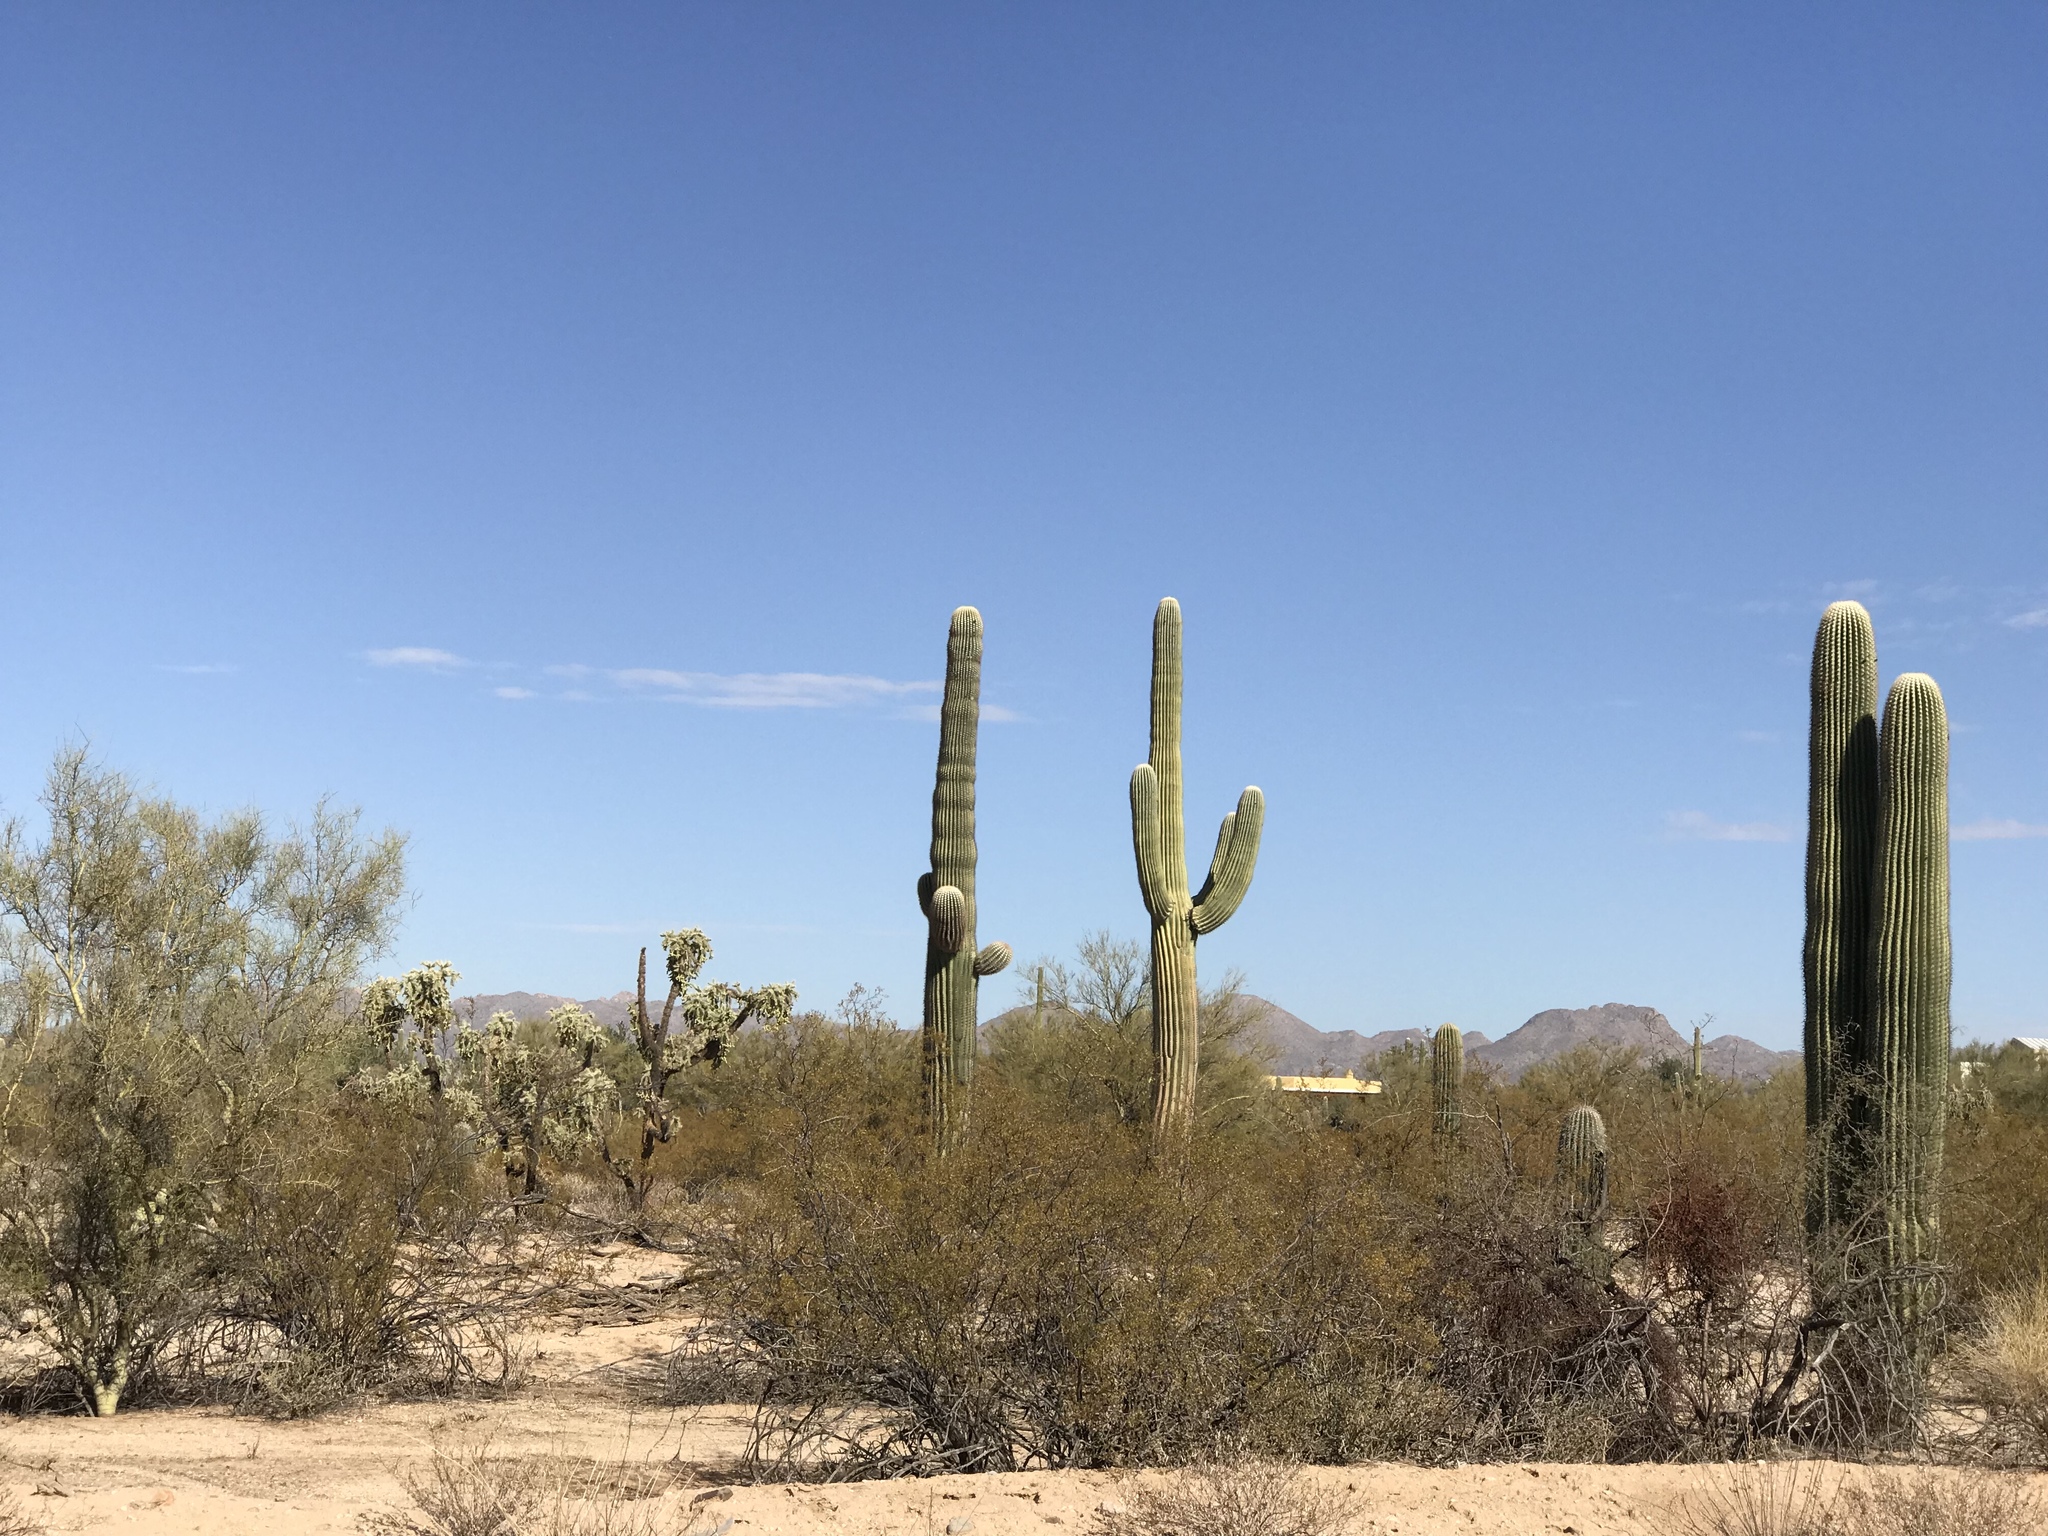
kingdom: Plantae
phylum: Tracheophyta
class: Magnoliopsida
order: Caryophyllales
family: Cactaceae
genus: Carnegiea
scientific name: Carnegiea gigantea
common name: Saguaro
